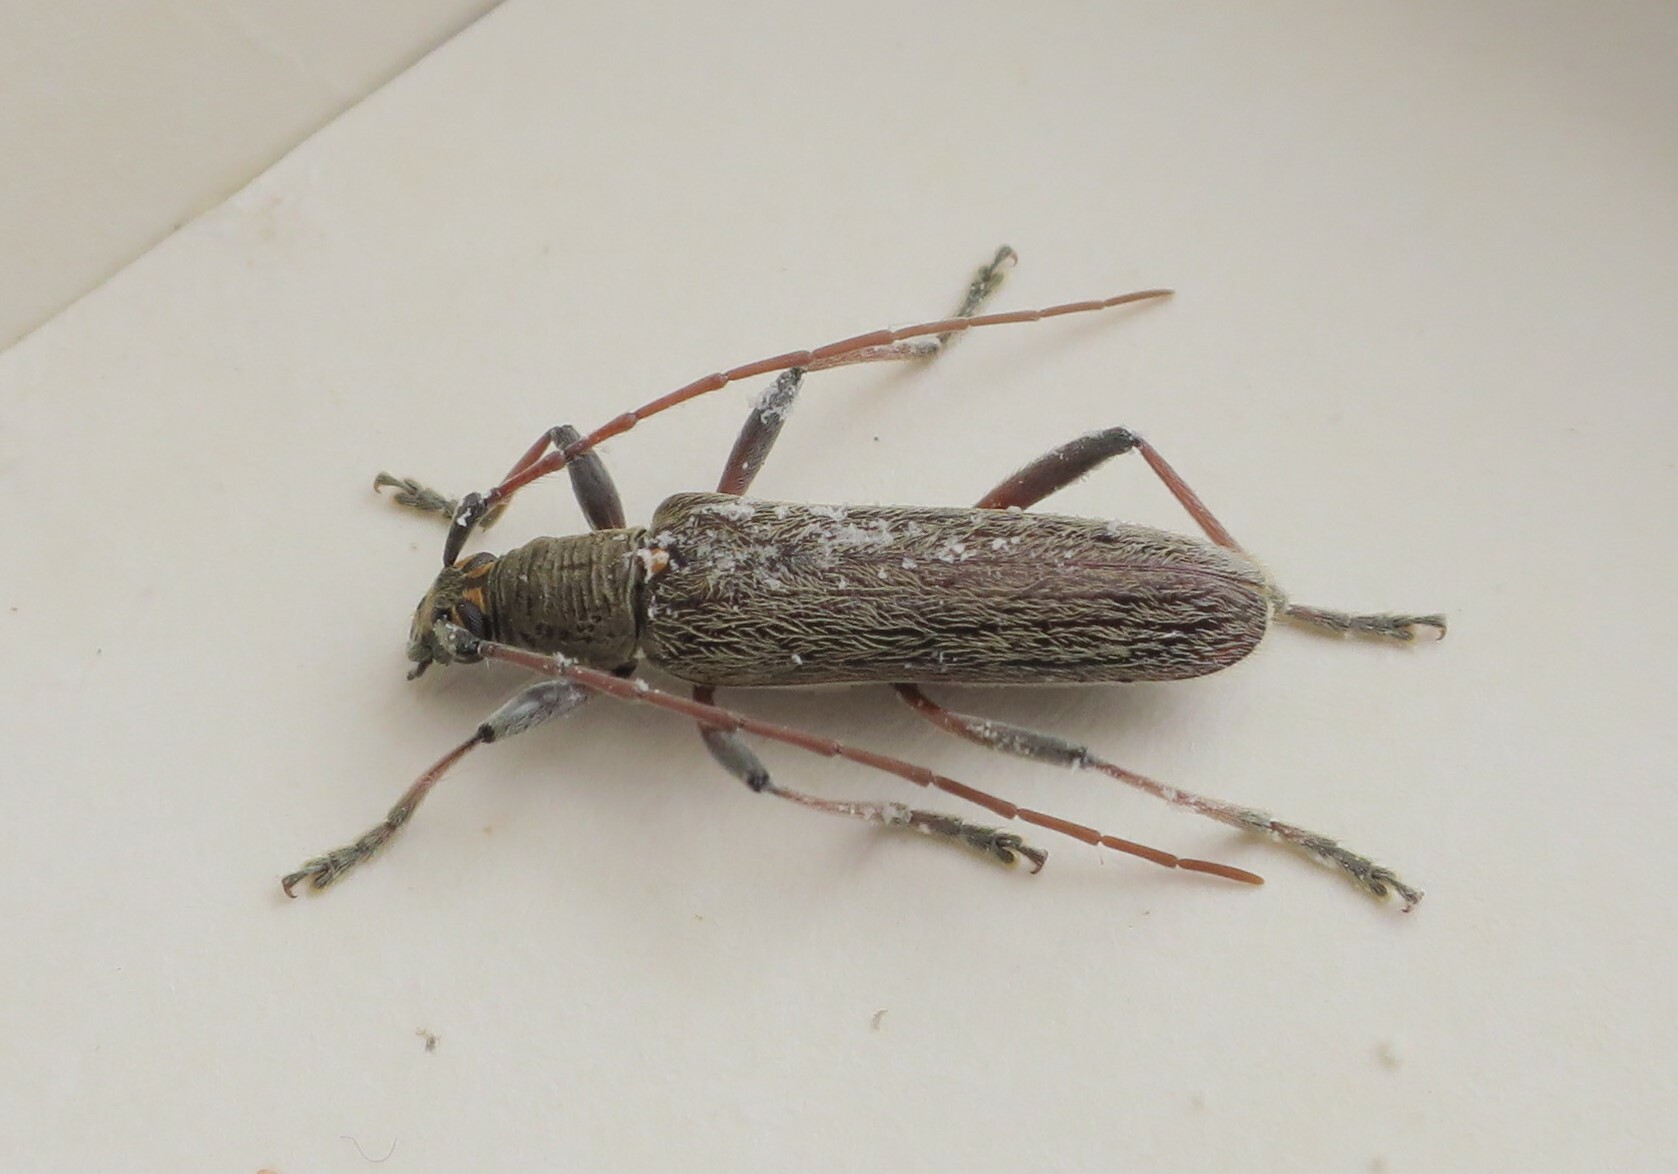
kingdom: Animalia
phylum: Arthropoda
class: Insecta
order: Coleoptera
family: Cerambycidae
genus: Oemona
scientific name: Oemona hirta
